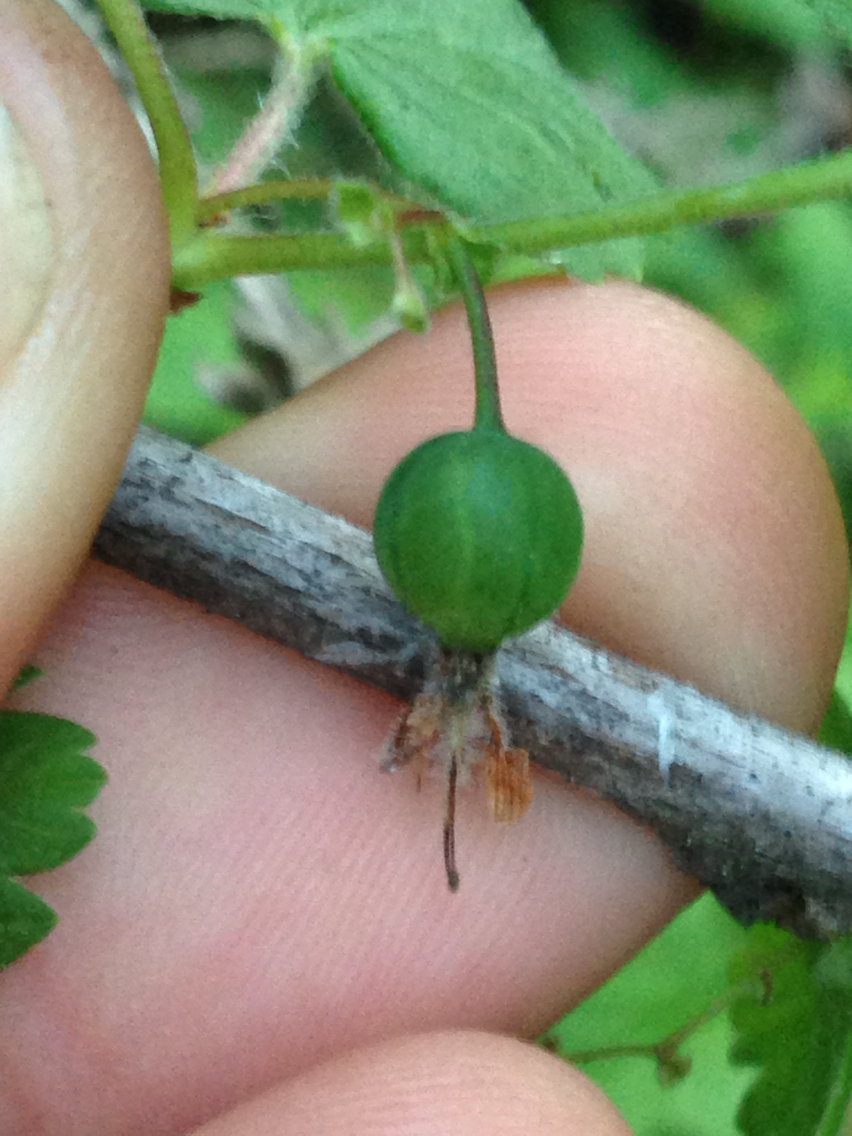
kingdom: Plantae
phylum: Tracheophyta
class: Magnoliopsida
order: Saxifragales
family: Grossulariaceae
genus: Ribes
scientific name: Ribes divaricatum
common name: Wild black gooseberry
